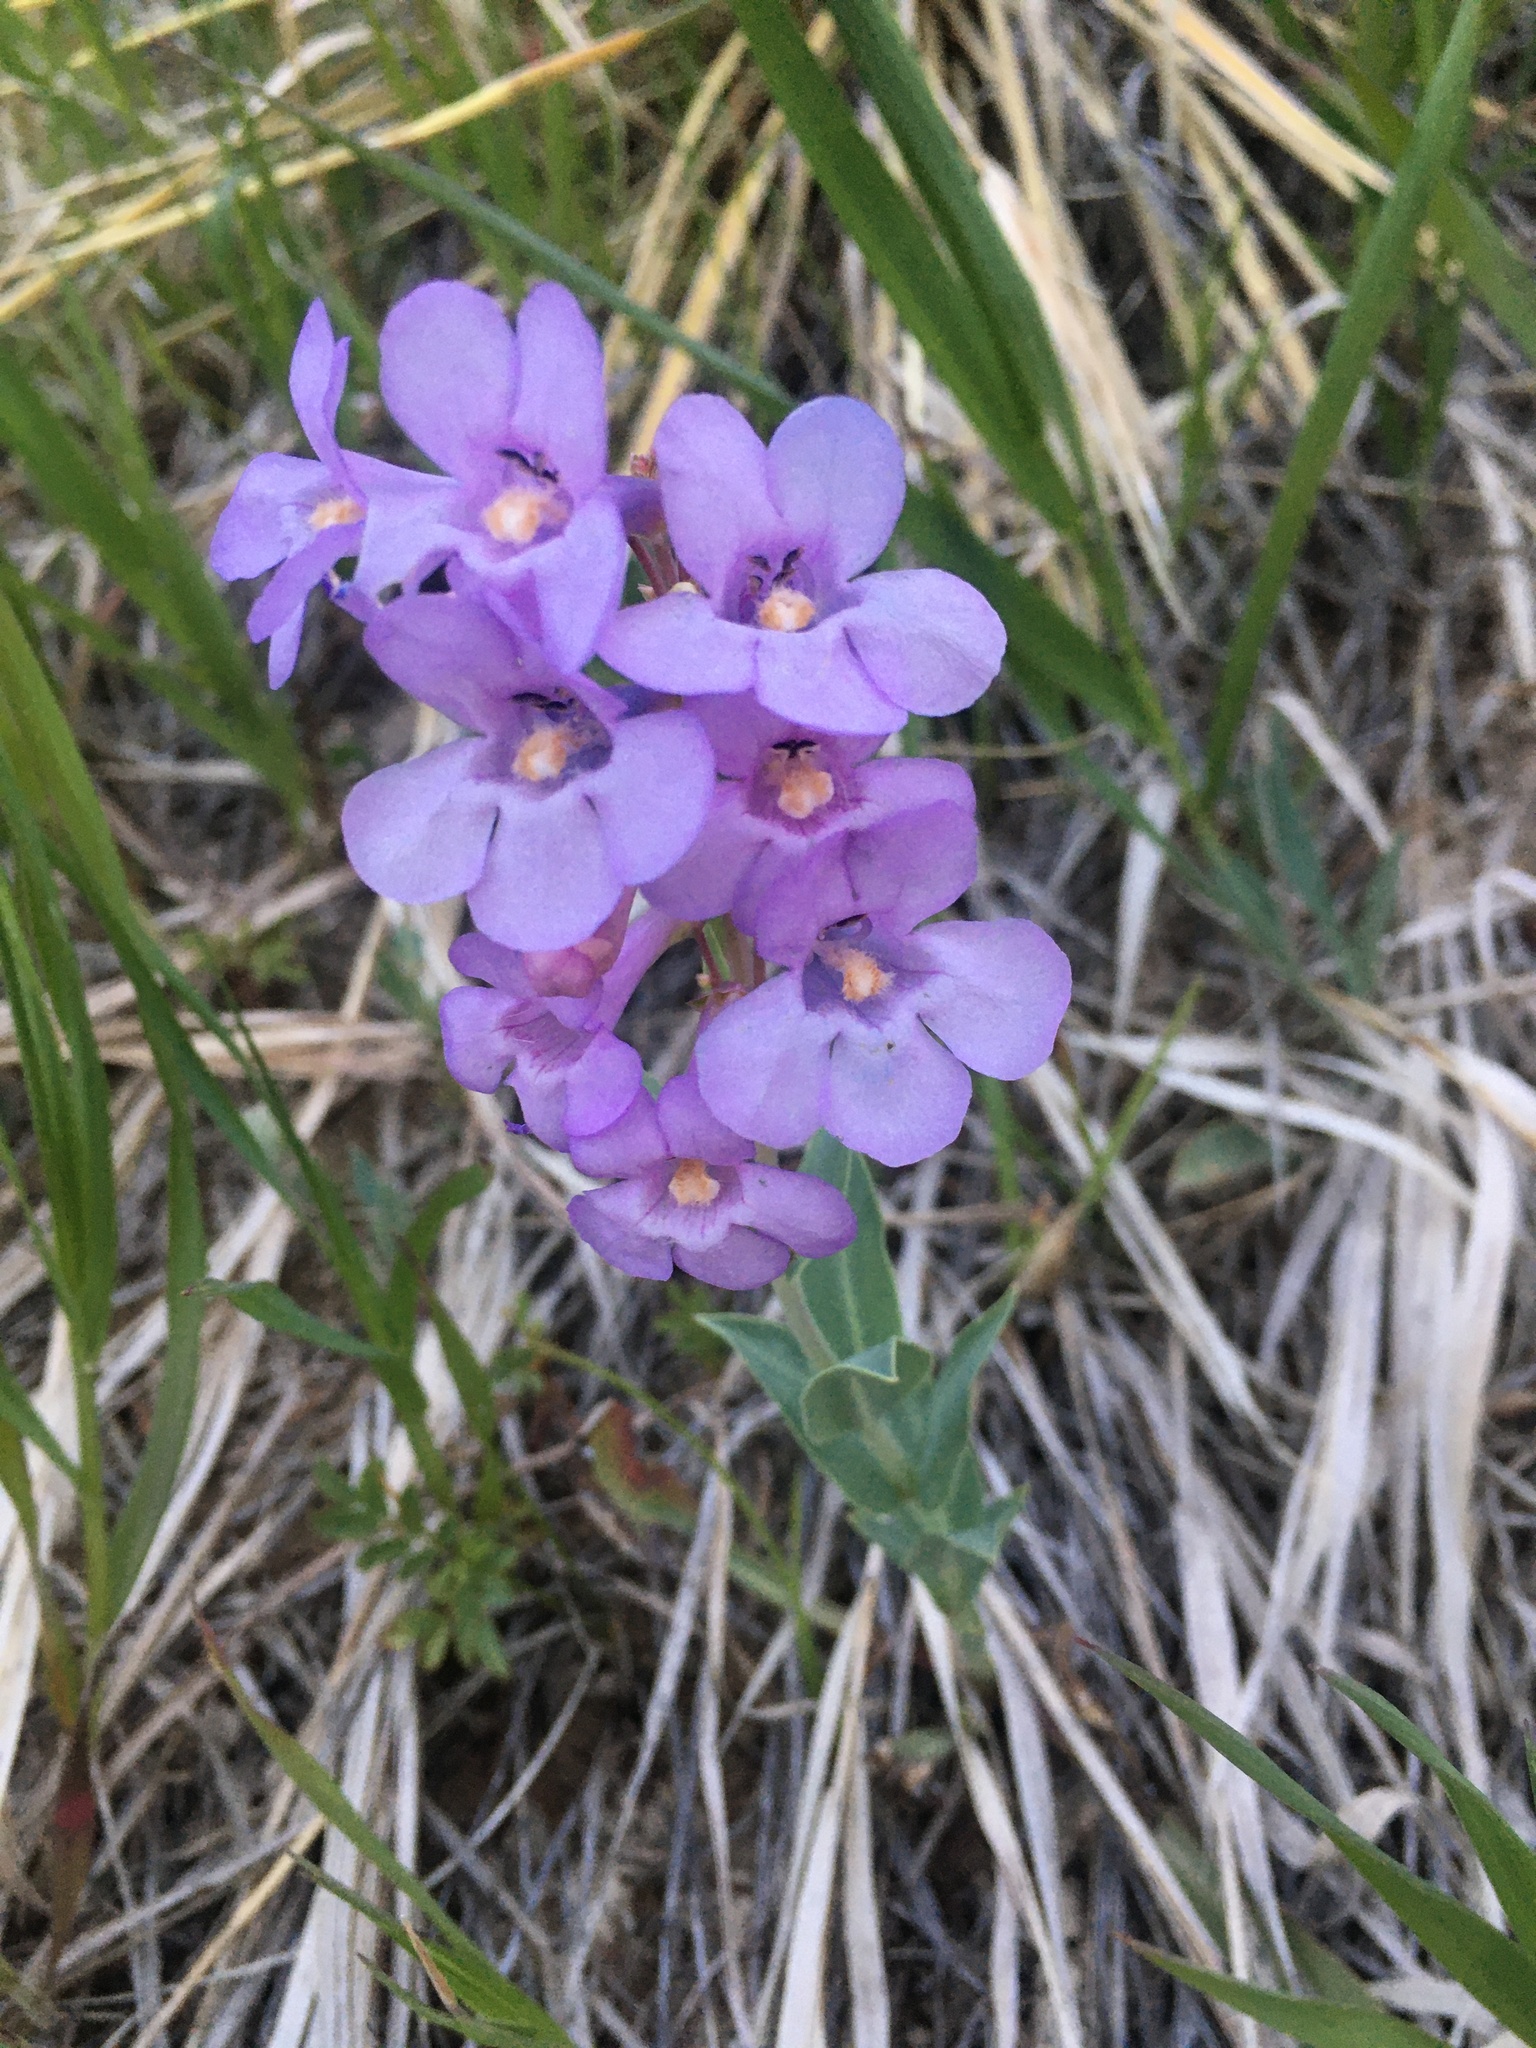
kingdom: Plantae
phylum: Tracheophyta
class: Magnoliopsida
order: Lamiales
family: Plantaginaceae
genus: Penstemon
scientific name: Penstemon secundiflorus
